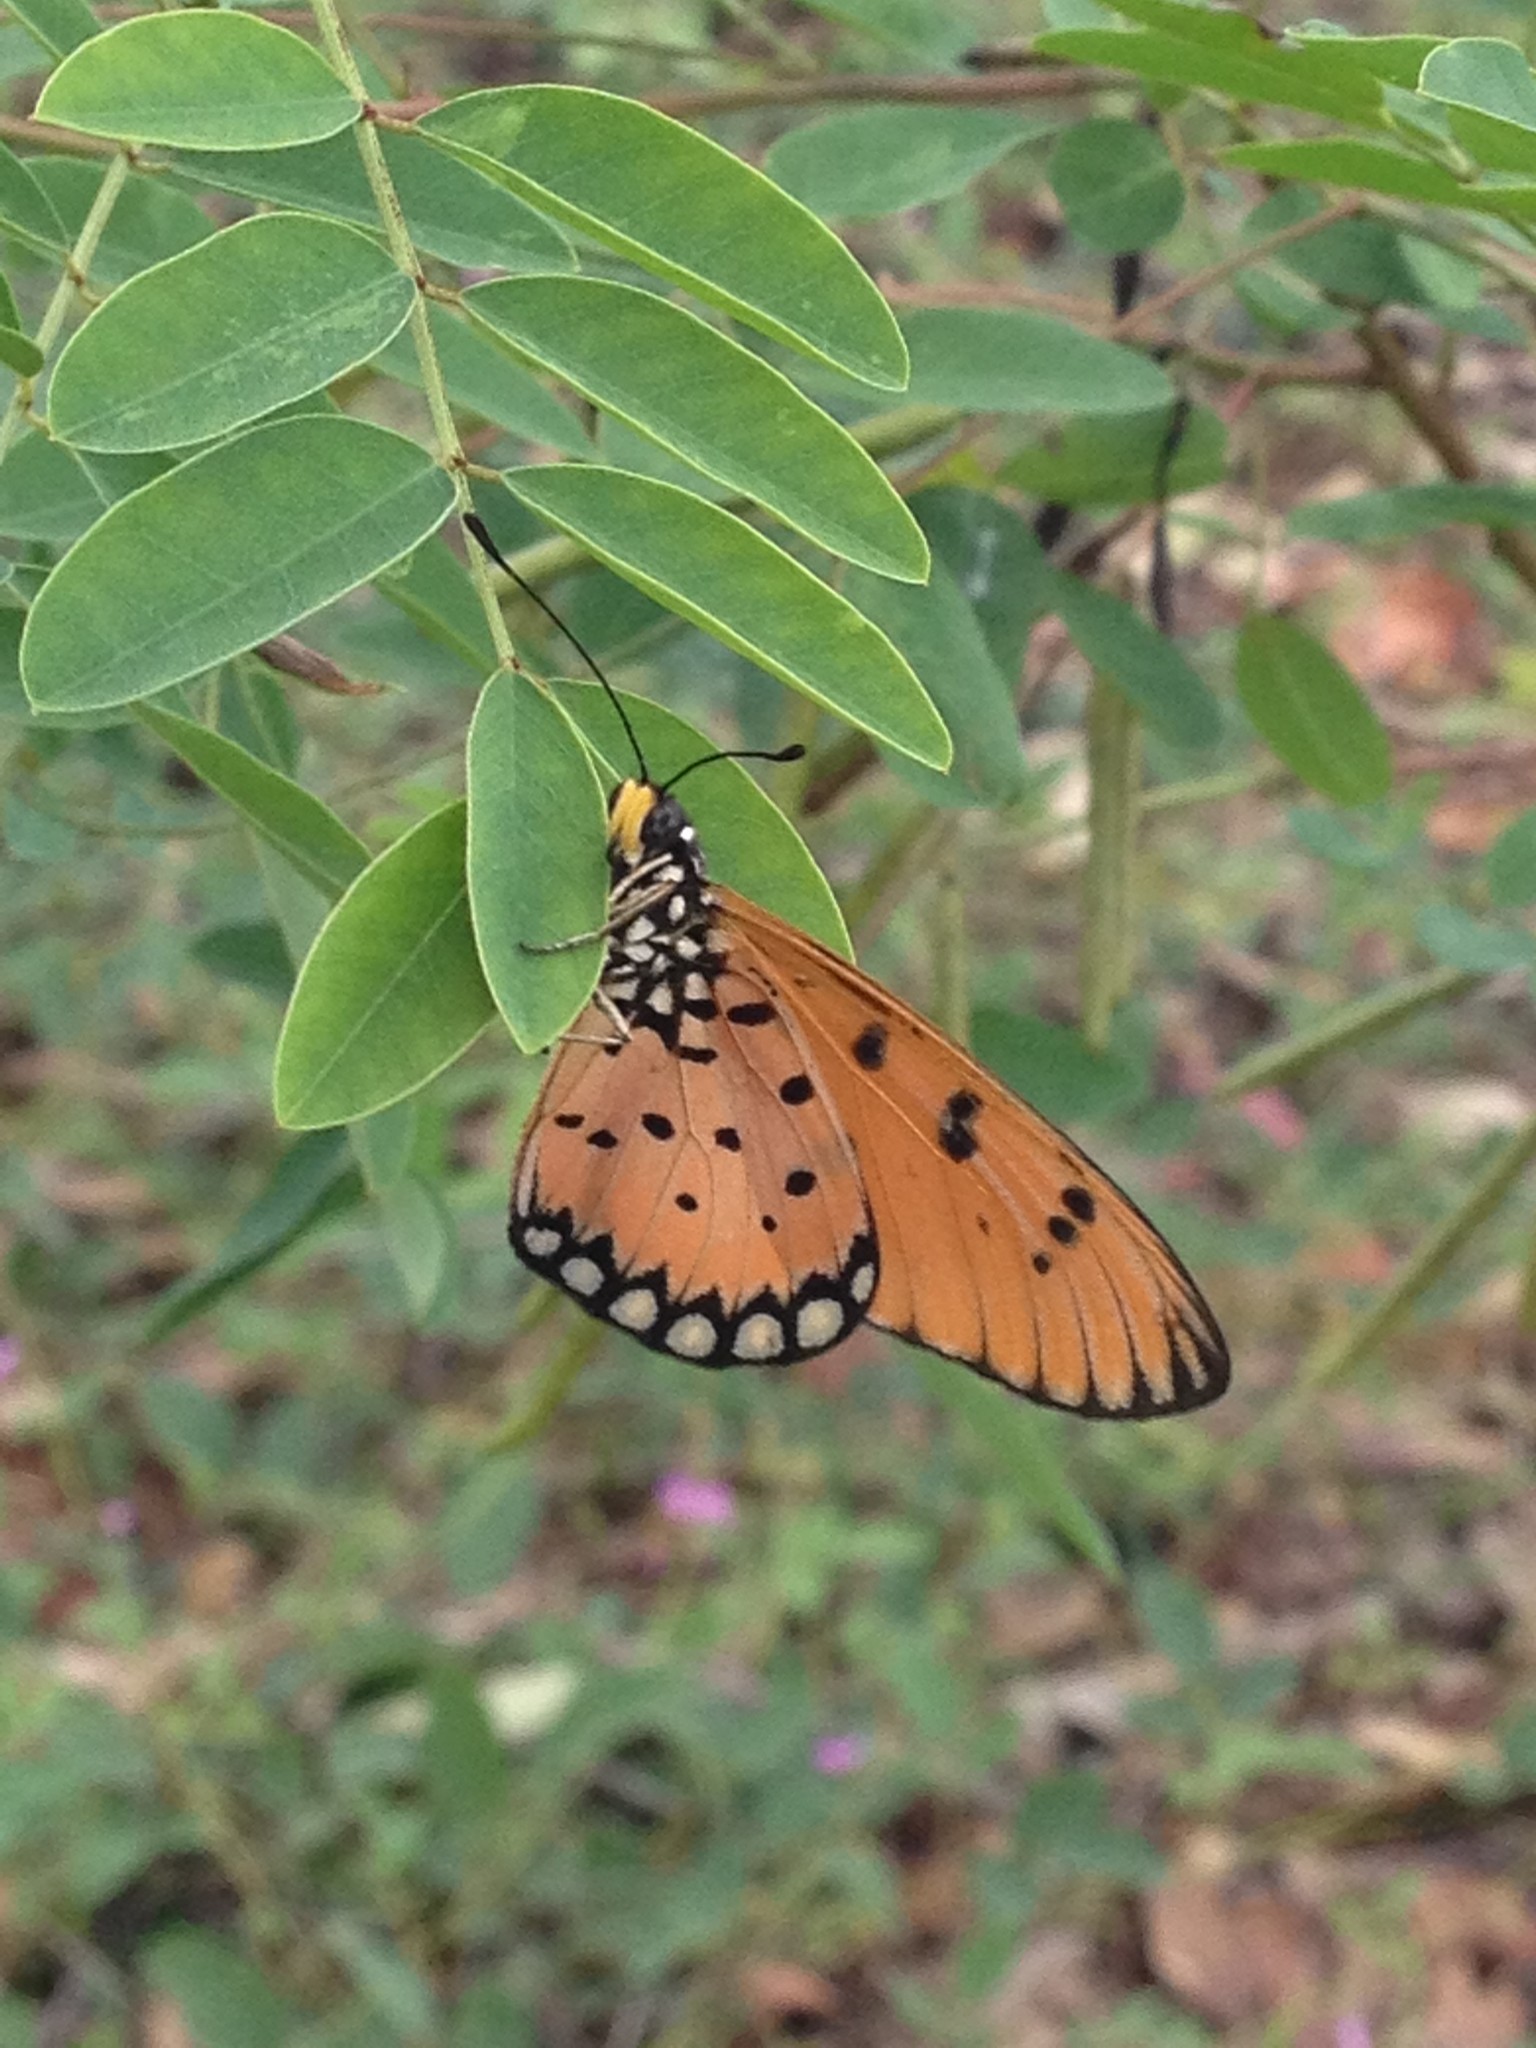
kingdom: Animalia
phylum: Arthropoda
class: Insecta
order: Lepidoptera
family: Nymphalidae
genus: Acraea
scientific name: Acraea terpsicore
